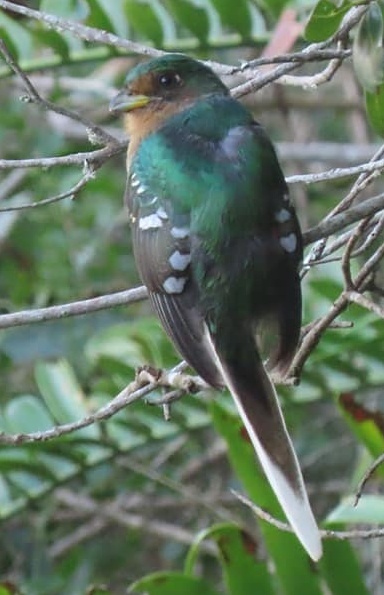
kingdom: Animalia
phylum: Chordata
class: Aves
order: Trogoniformes
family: Trogonidae
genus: Apaloderma
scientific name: Apaloderma narina
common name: Narina trogon
